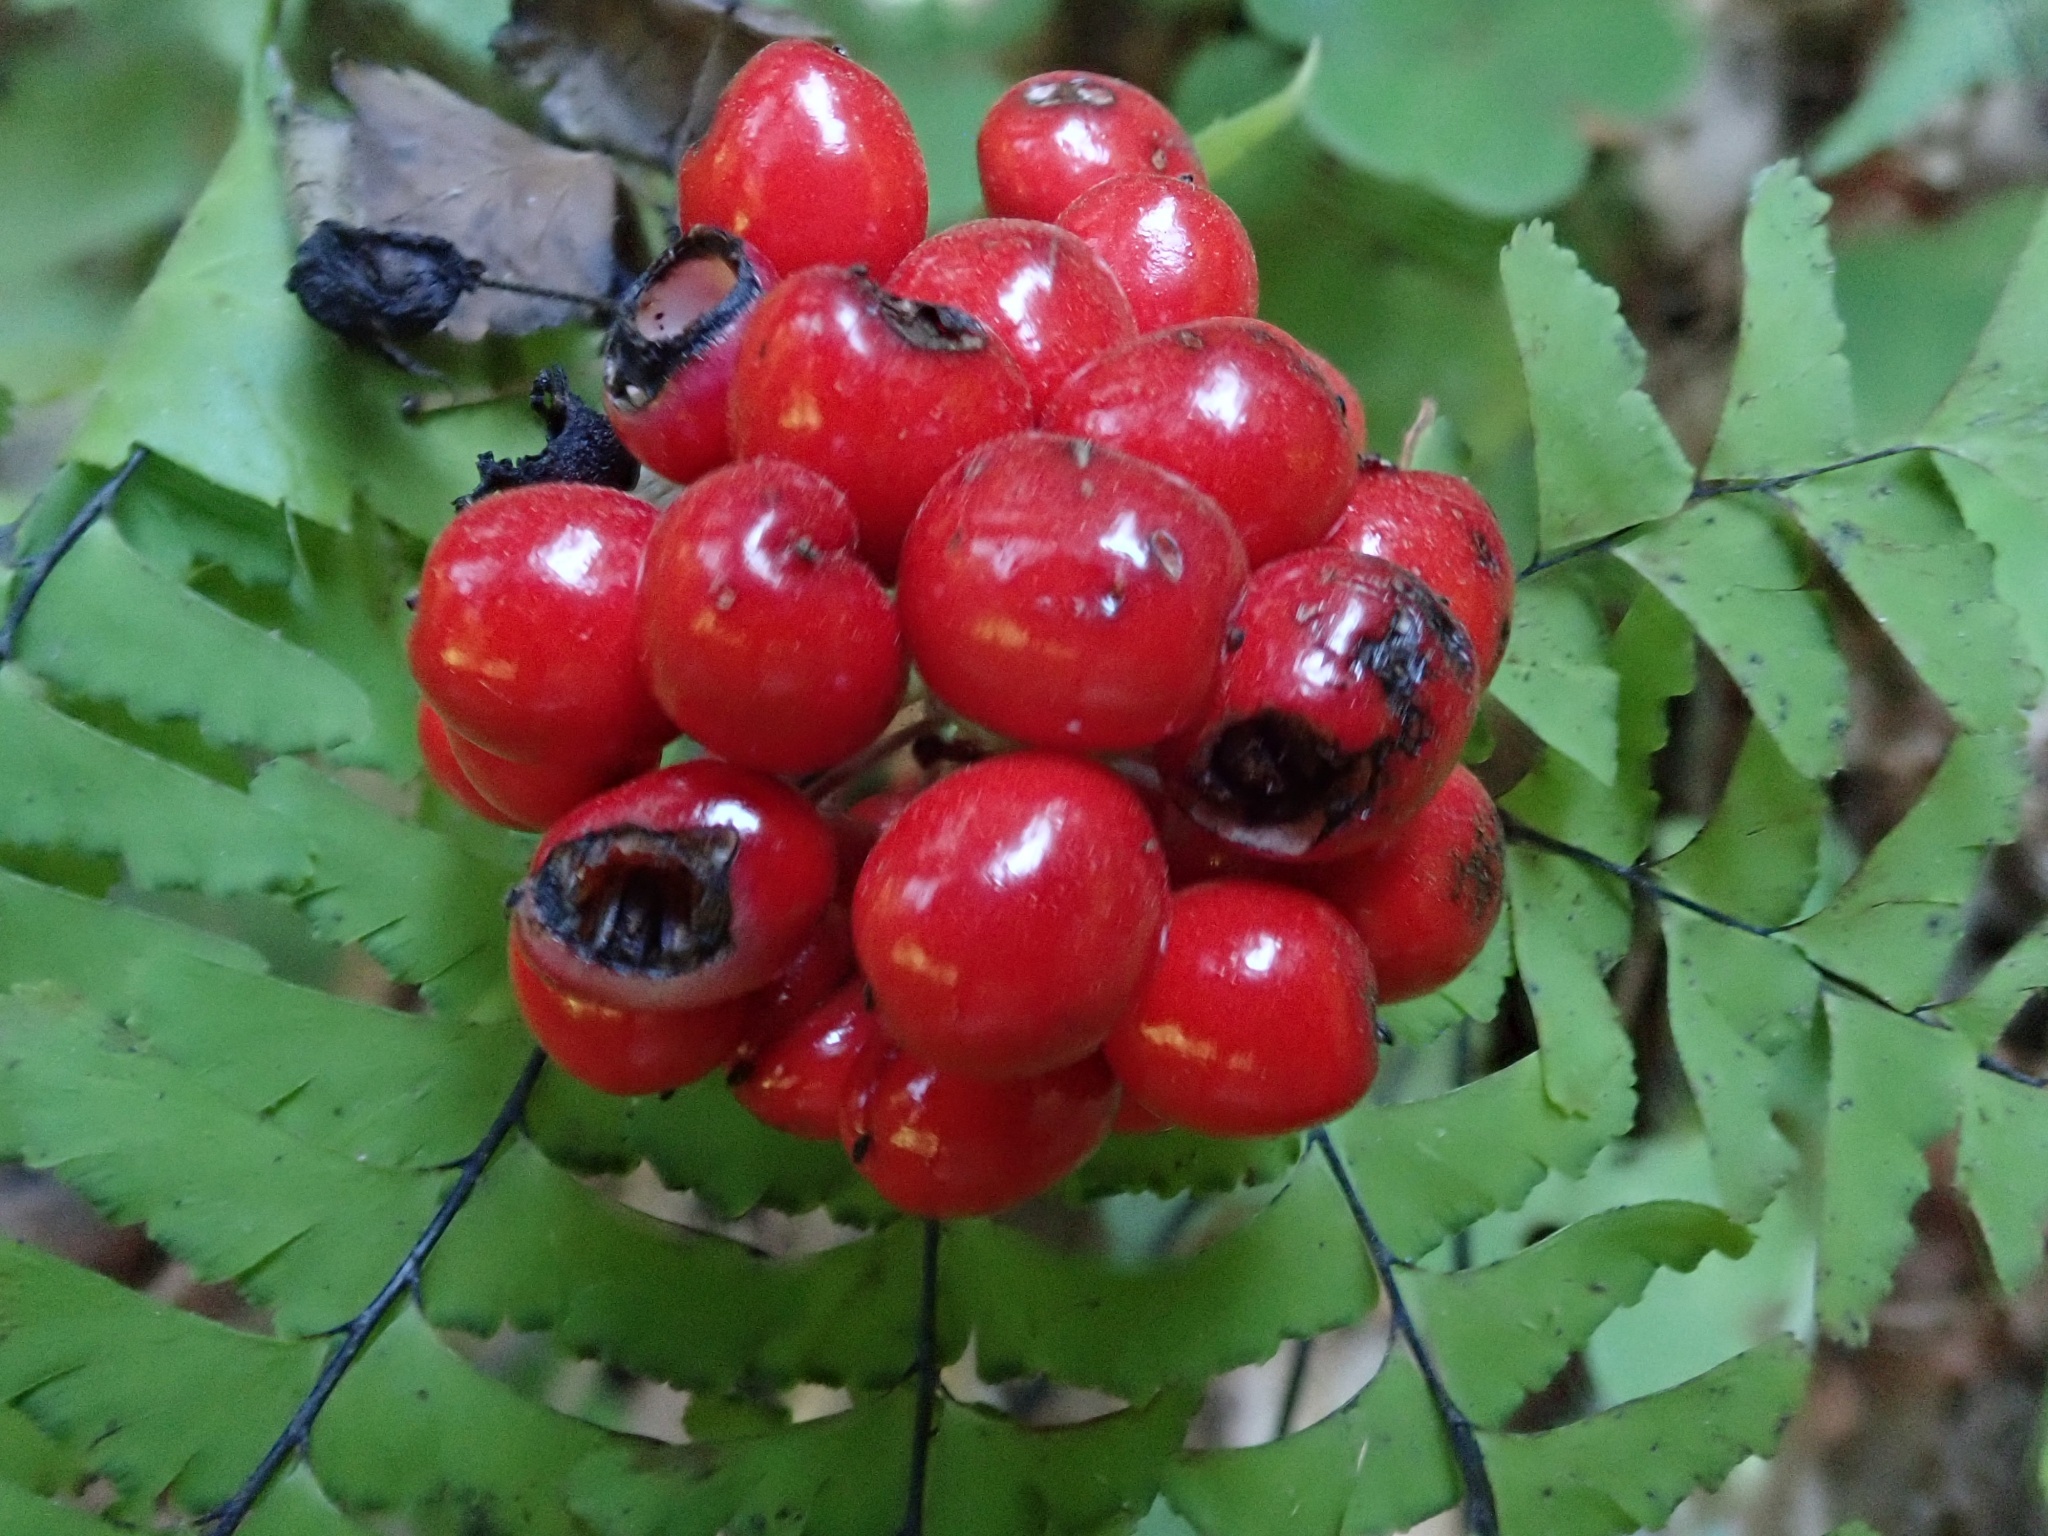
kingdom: Plantae
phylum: Tracheophyta
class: Magnoliopsida
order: Ranunculales
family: Ranunculaceae
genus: Actaea
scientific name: Actaea rubra
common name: Red baneberry
